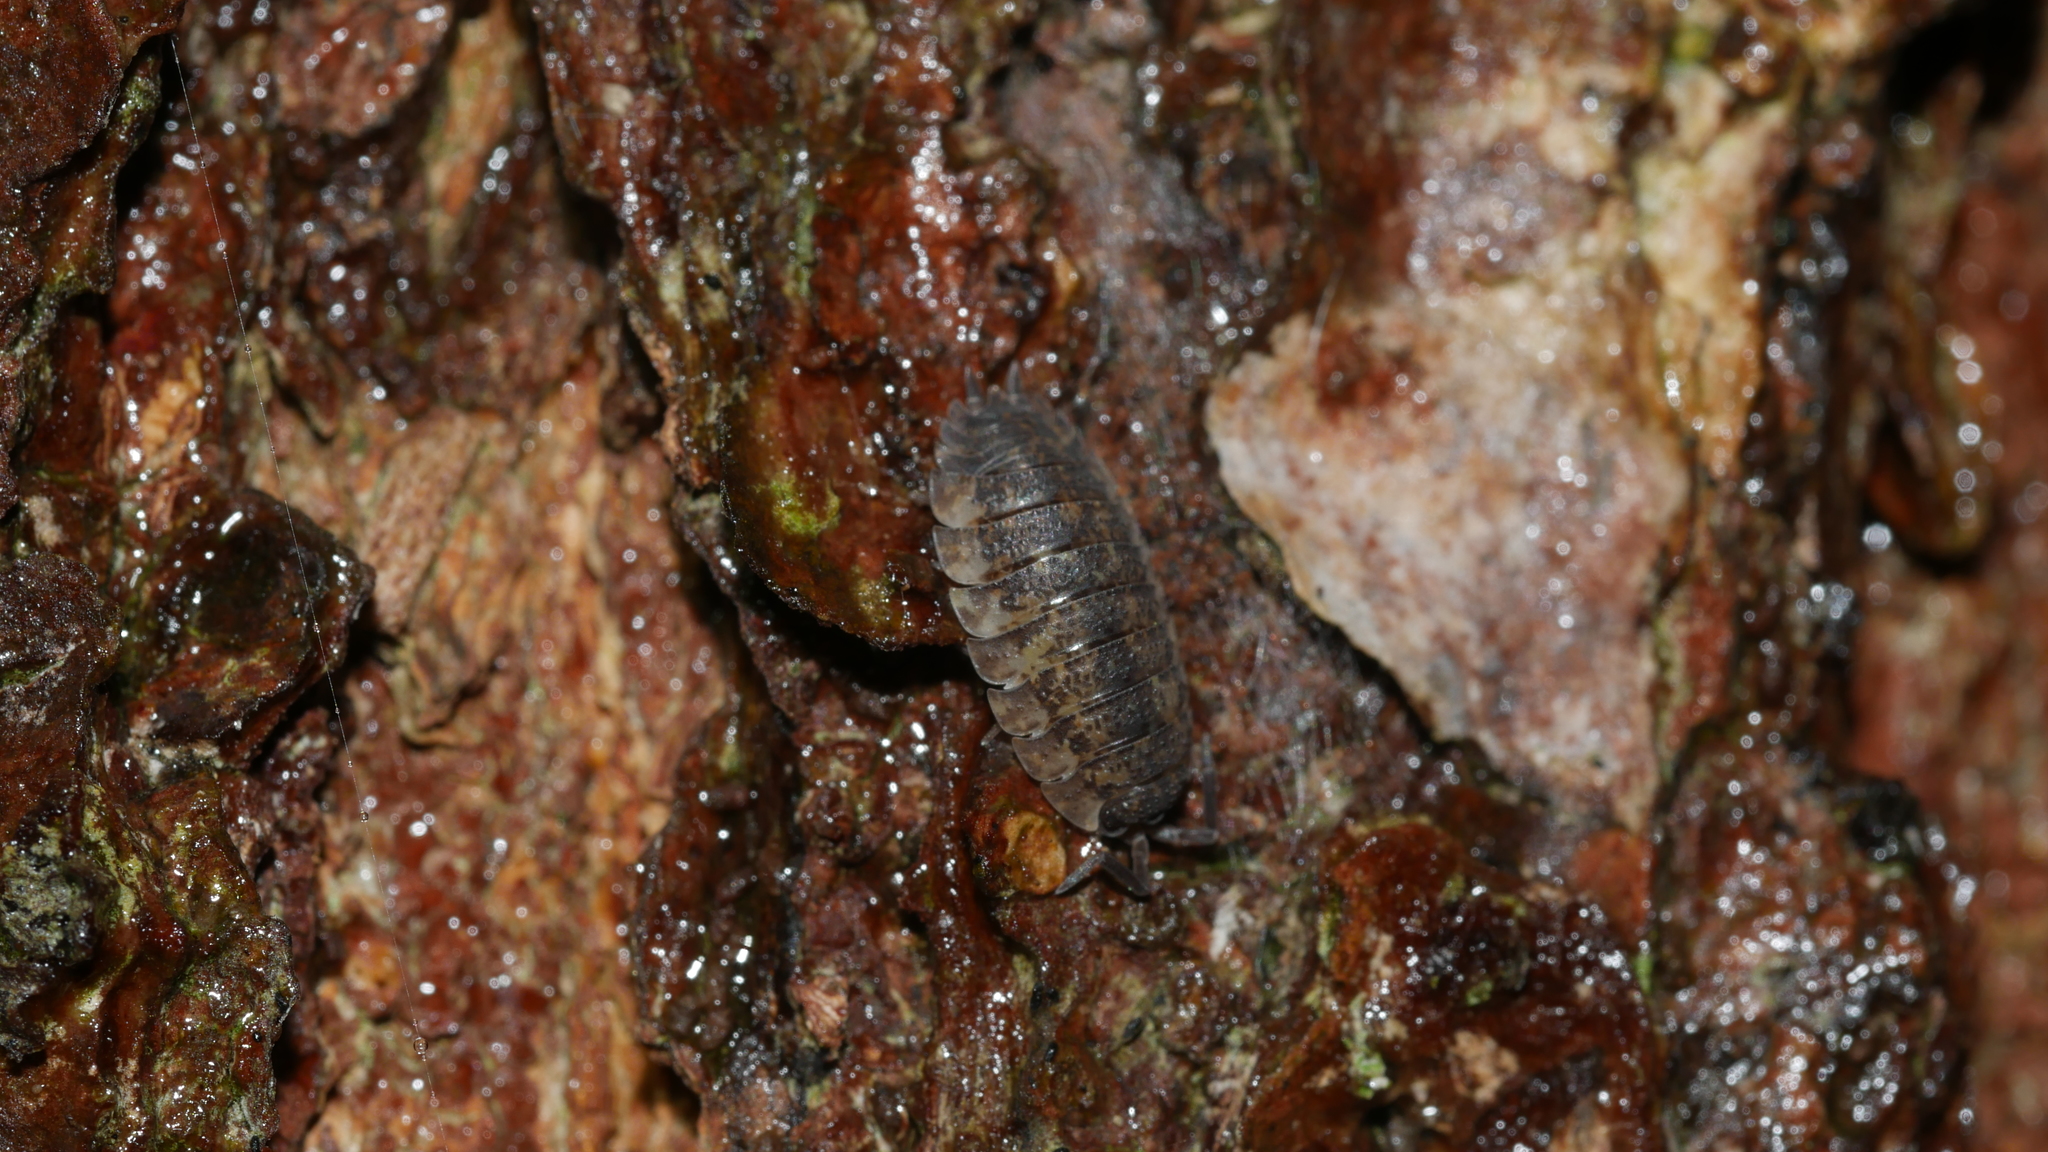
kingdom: Animalia
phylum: Arthropoda
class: Malacostraca
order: Isopoda
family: Porcellionidae
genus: Porcellio
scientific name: Porcellio scaber
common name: Common rough woodlouse
